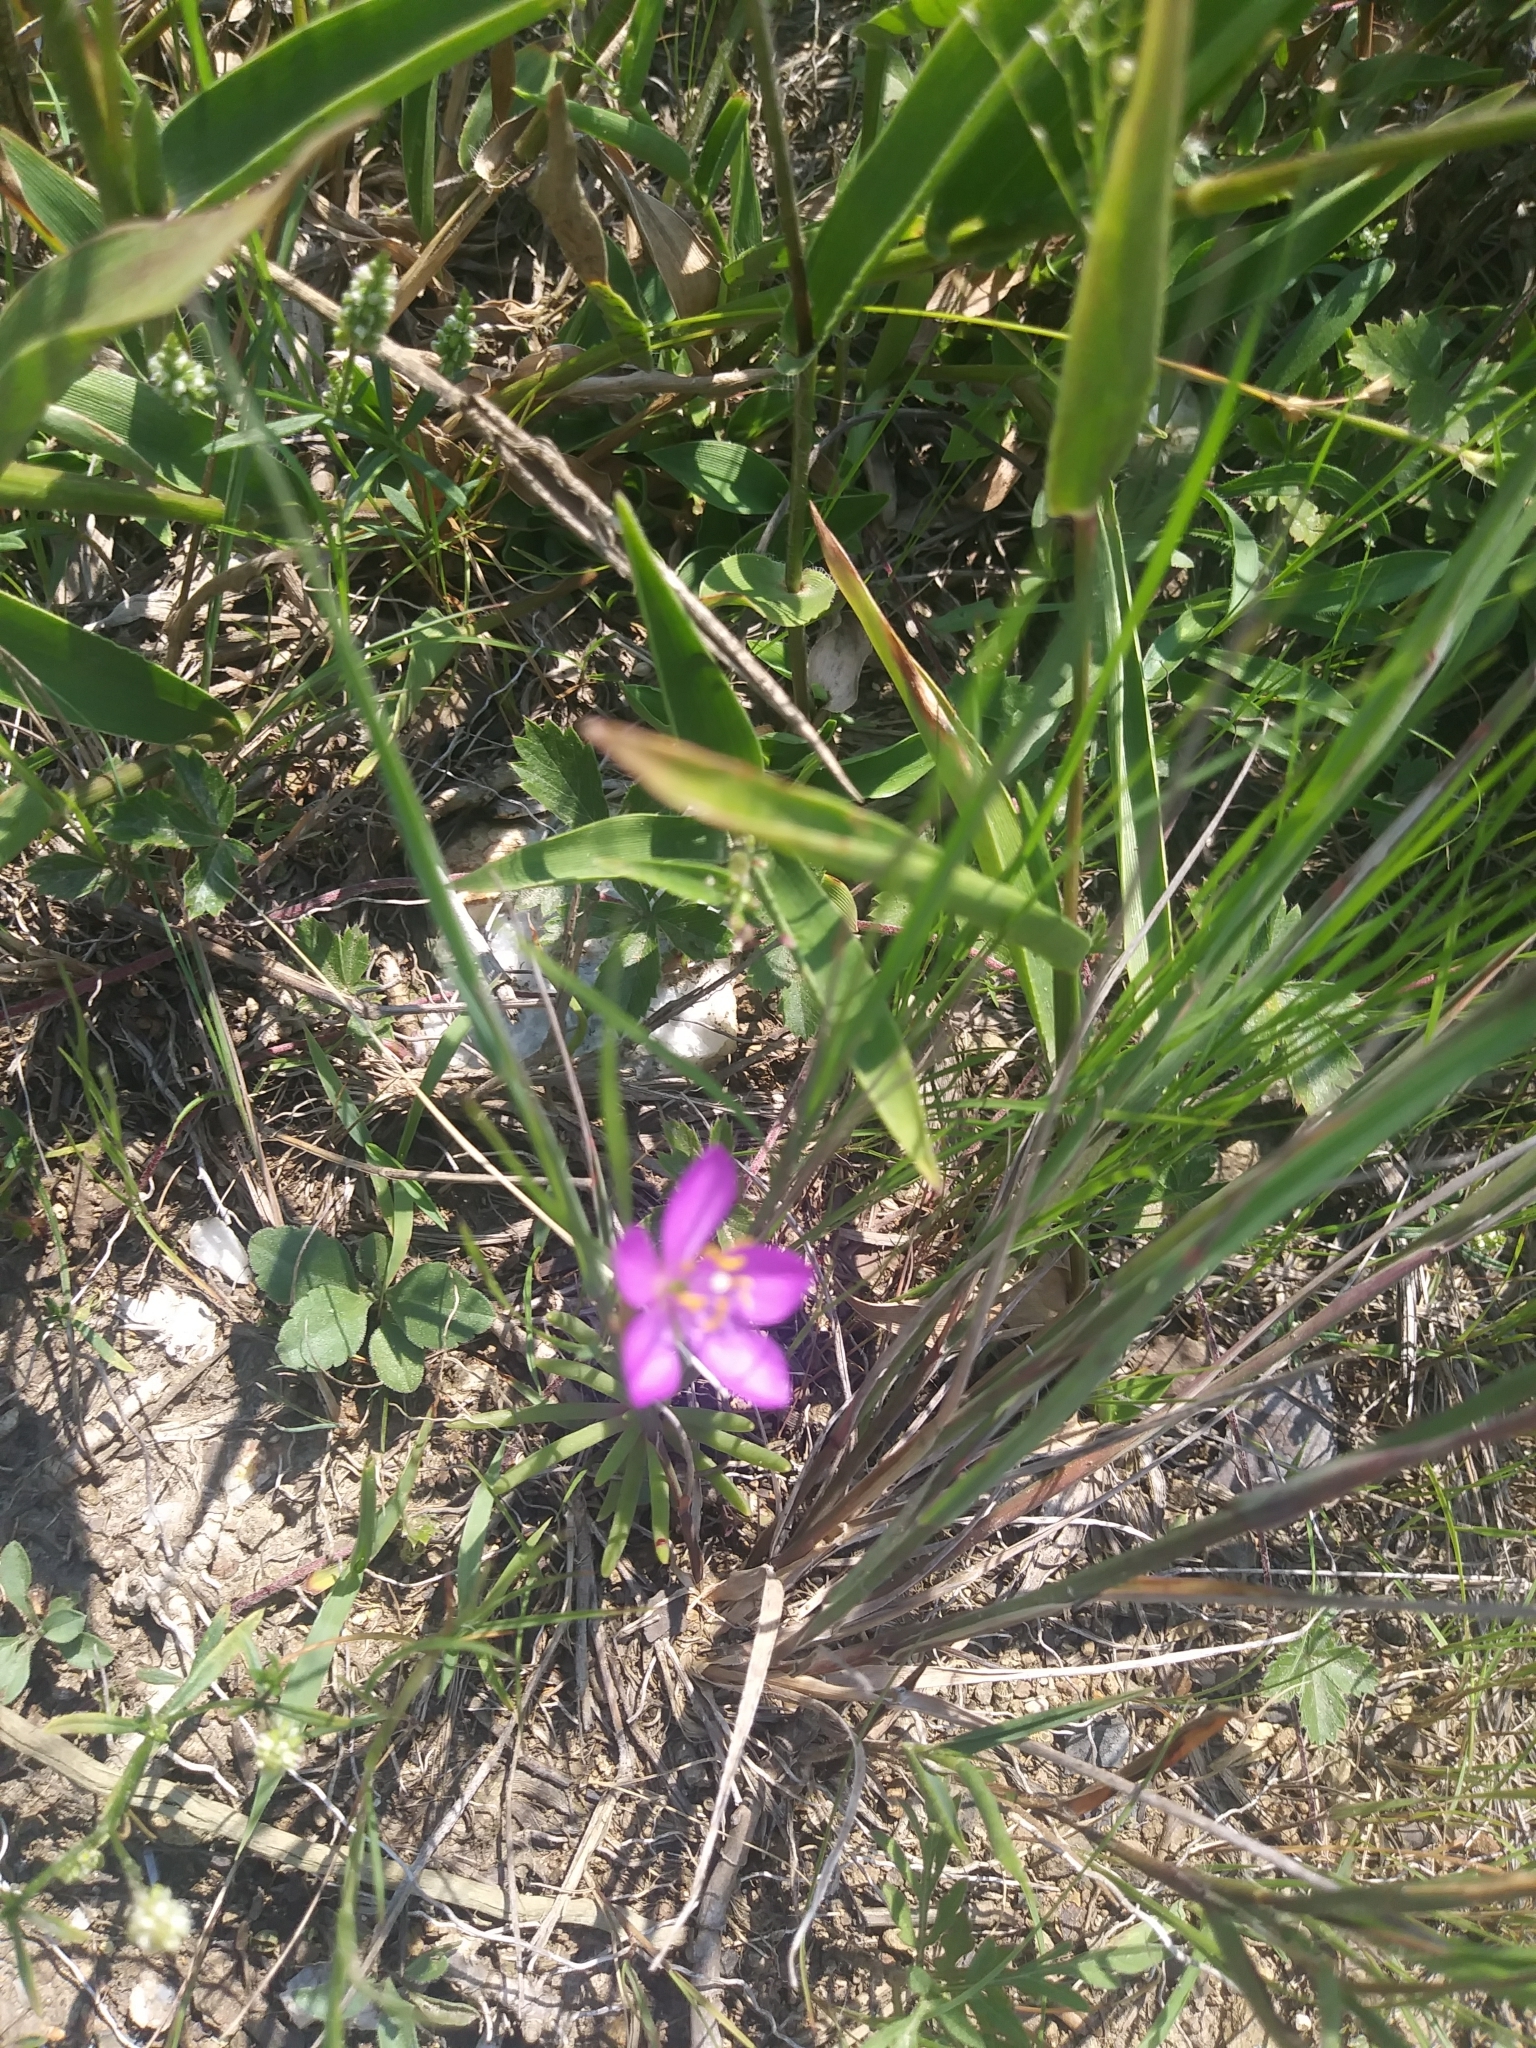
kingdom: Plantae
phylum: Tracheophyta
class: Magnoliopsida
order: Caryophyllales
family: Montiaceae
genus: Phemeranthus
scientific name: Phemeranthus teretifolius
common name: Quill fameflower
